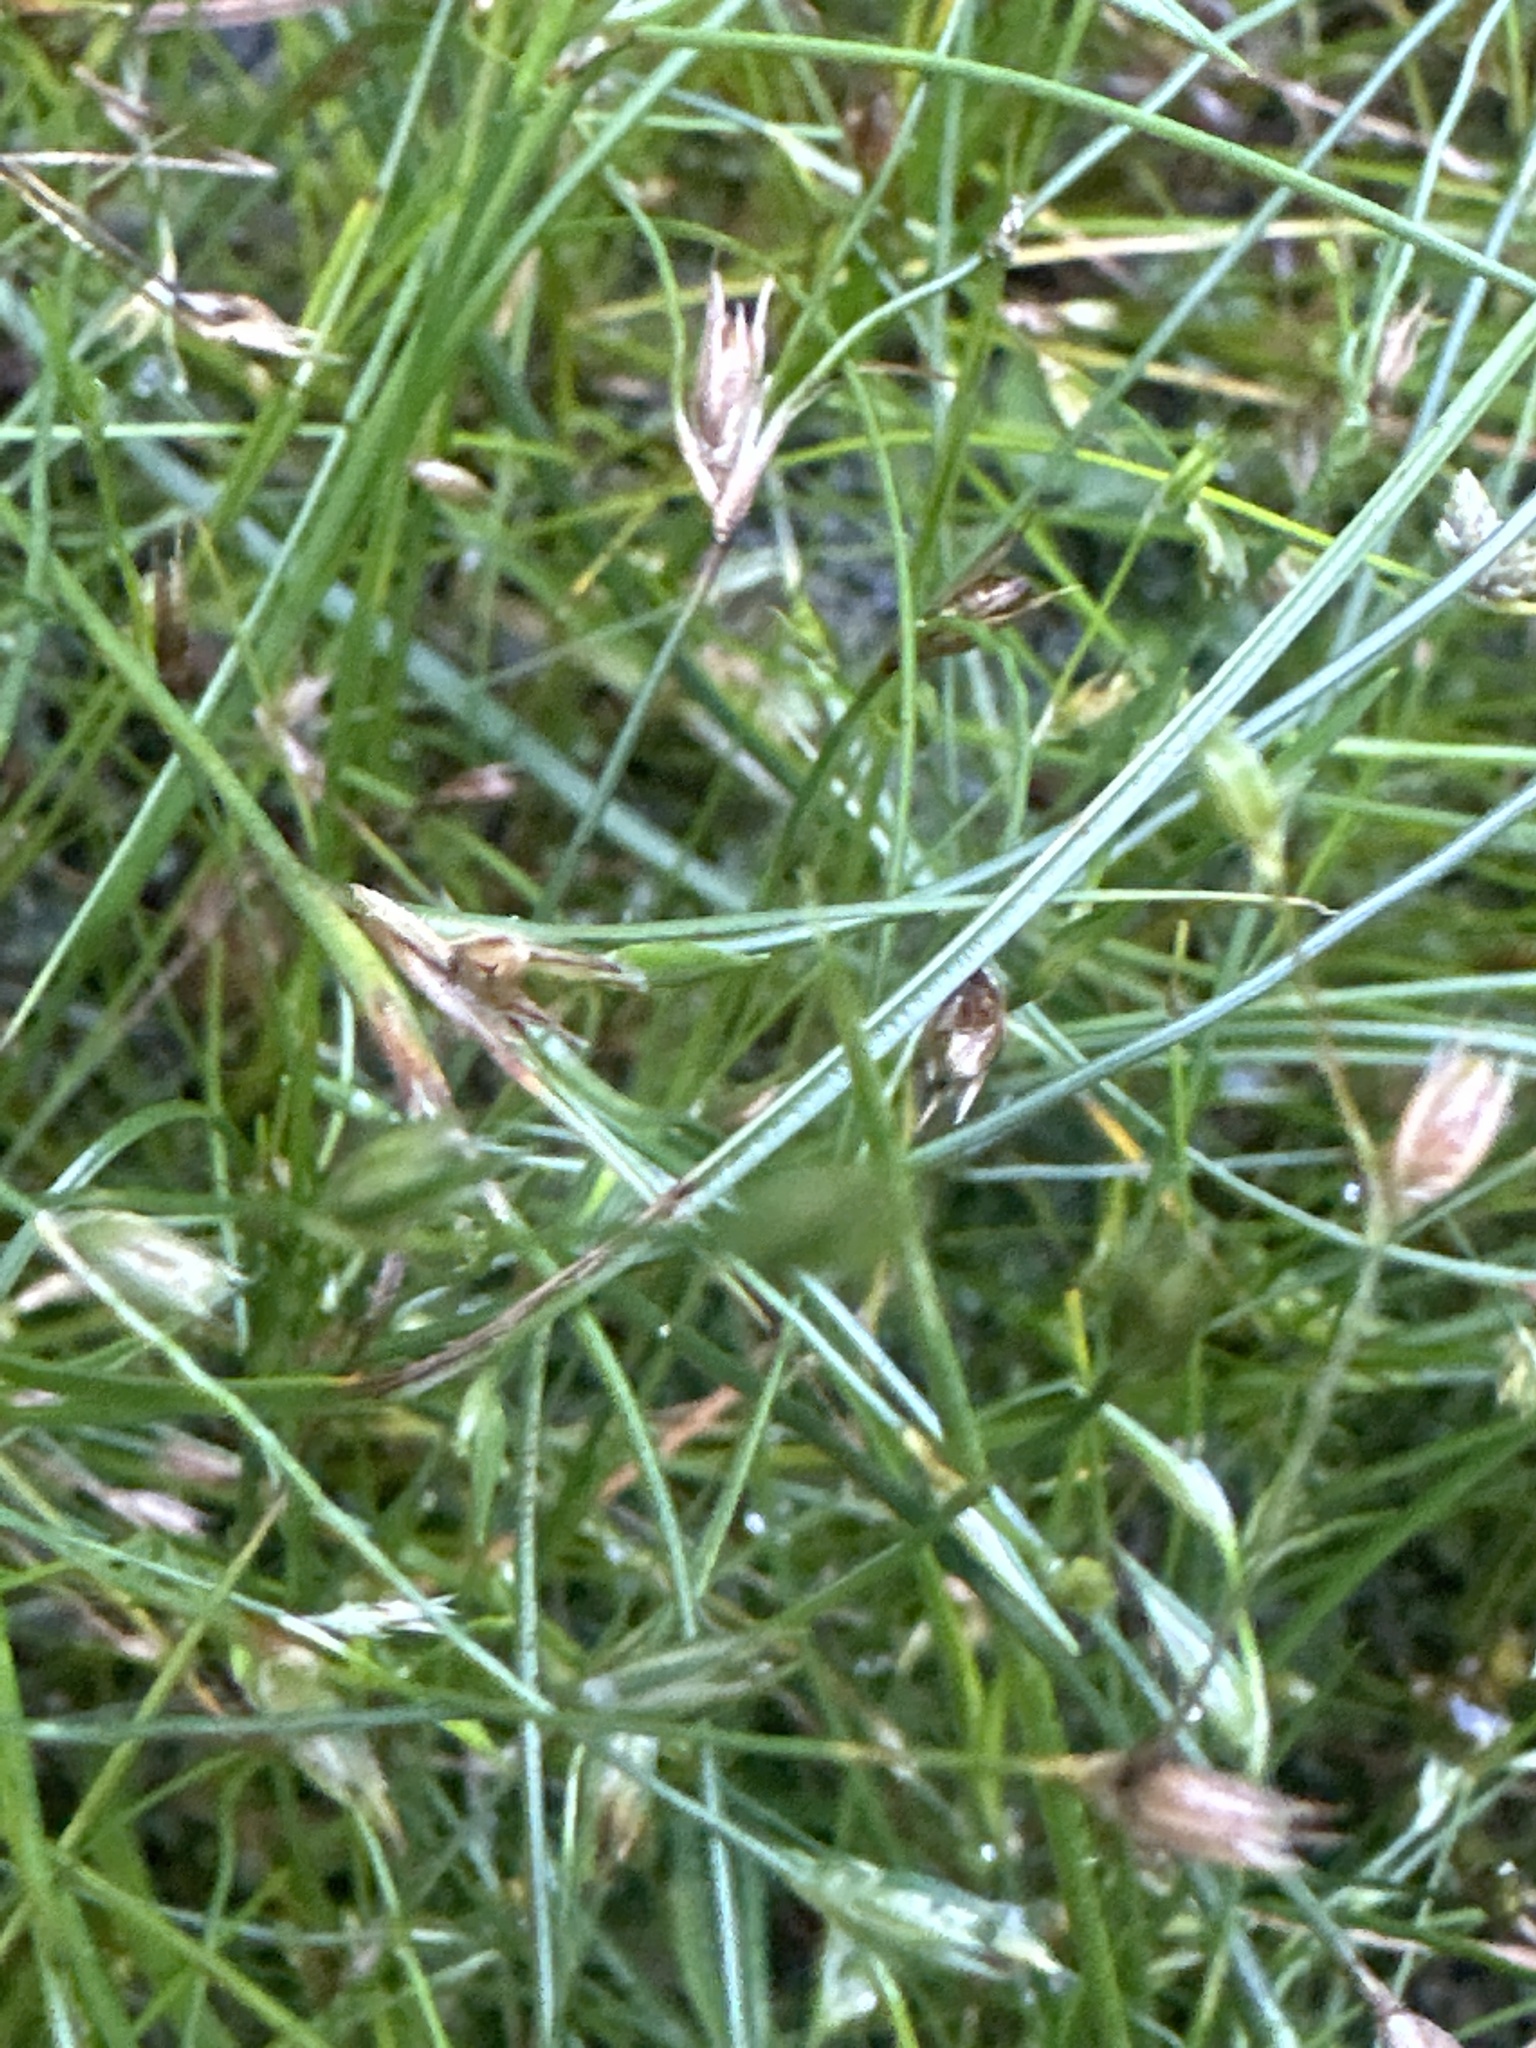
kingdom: Plantae
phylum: Tracheophyta
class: Liliopsida
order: Poales
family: Juncaceae
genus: Juncus
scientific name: Juncus bufonius
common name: Toad rush
